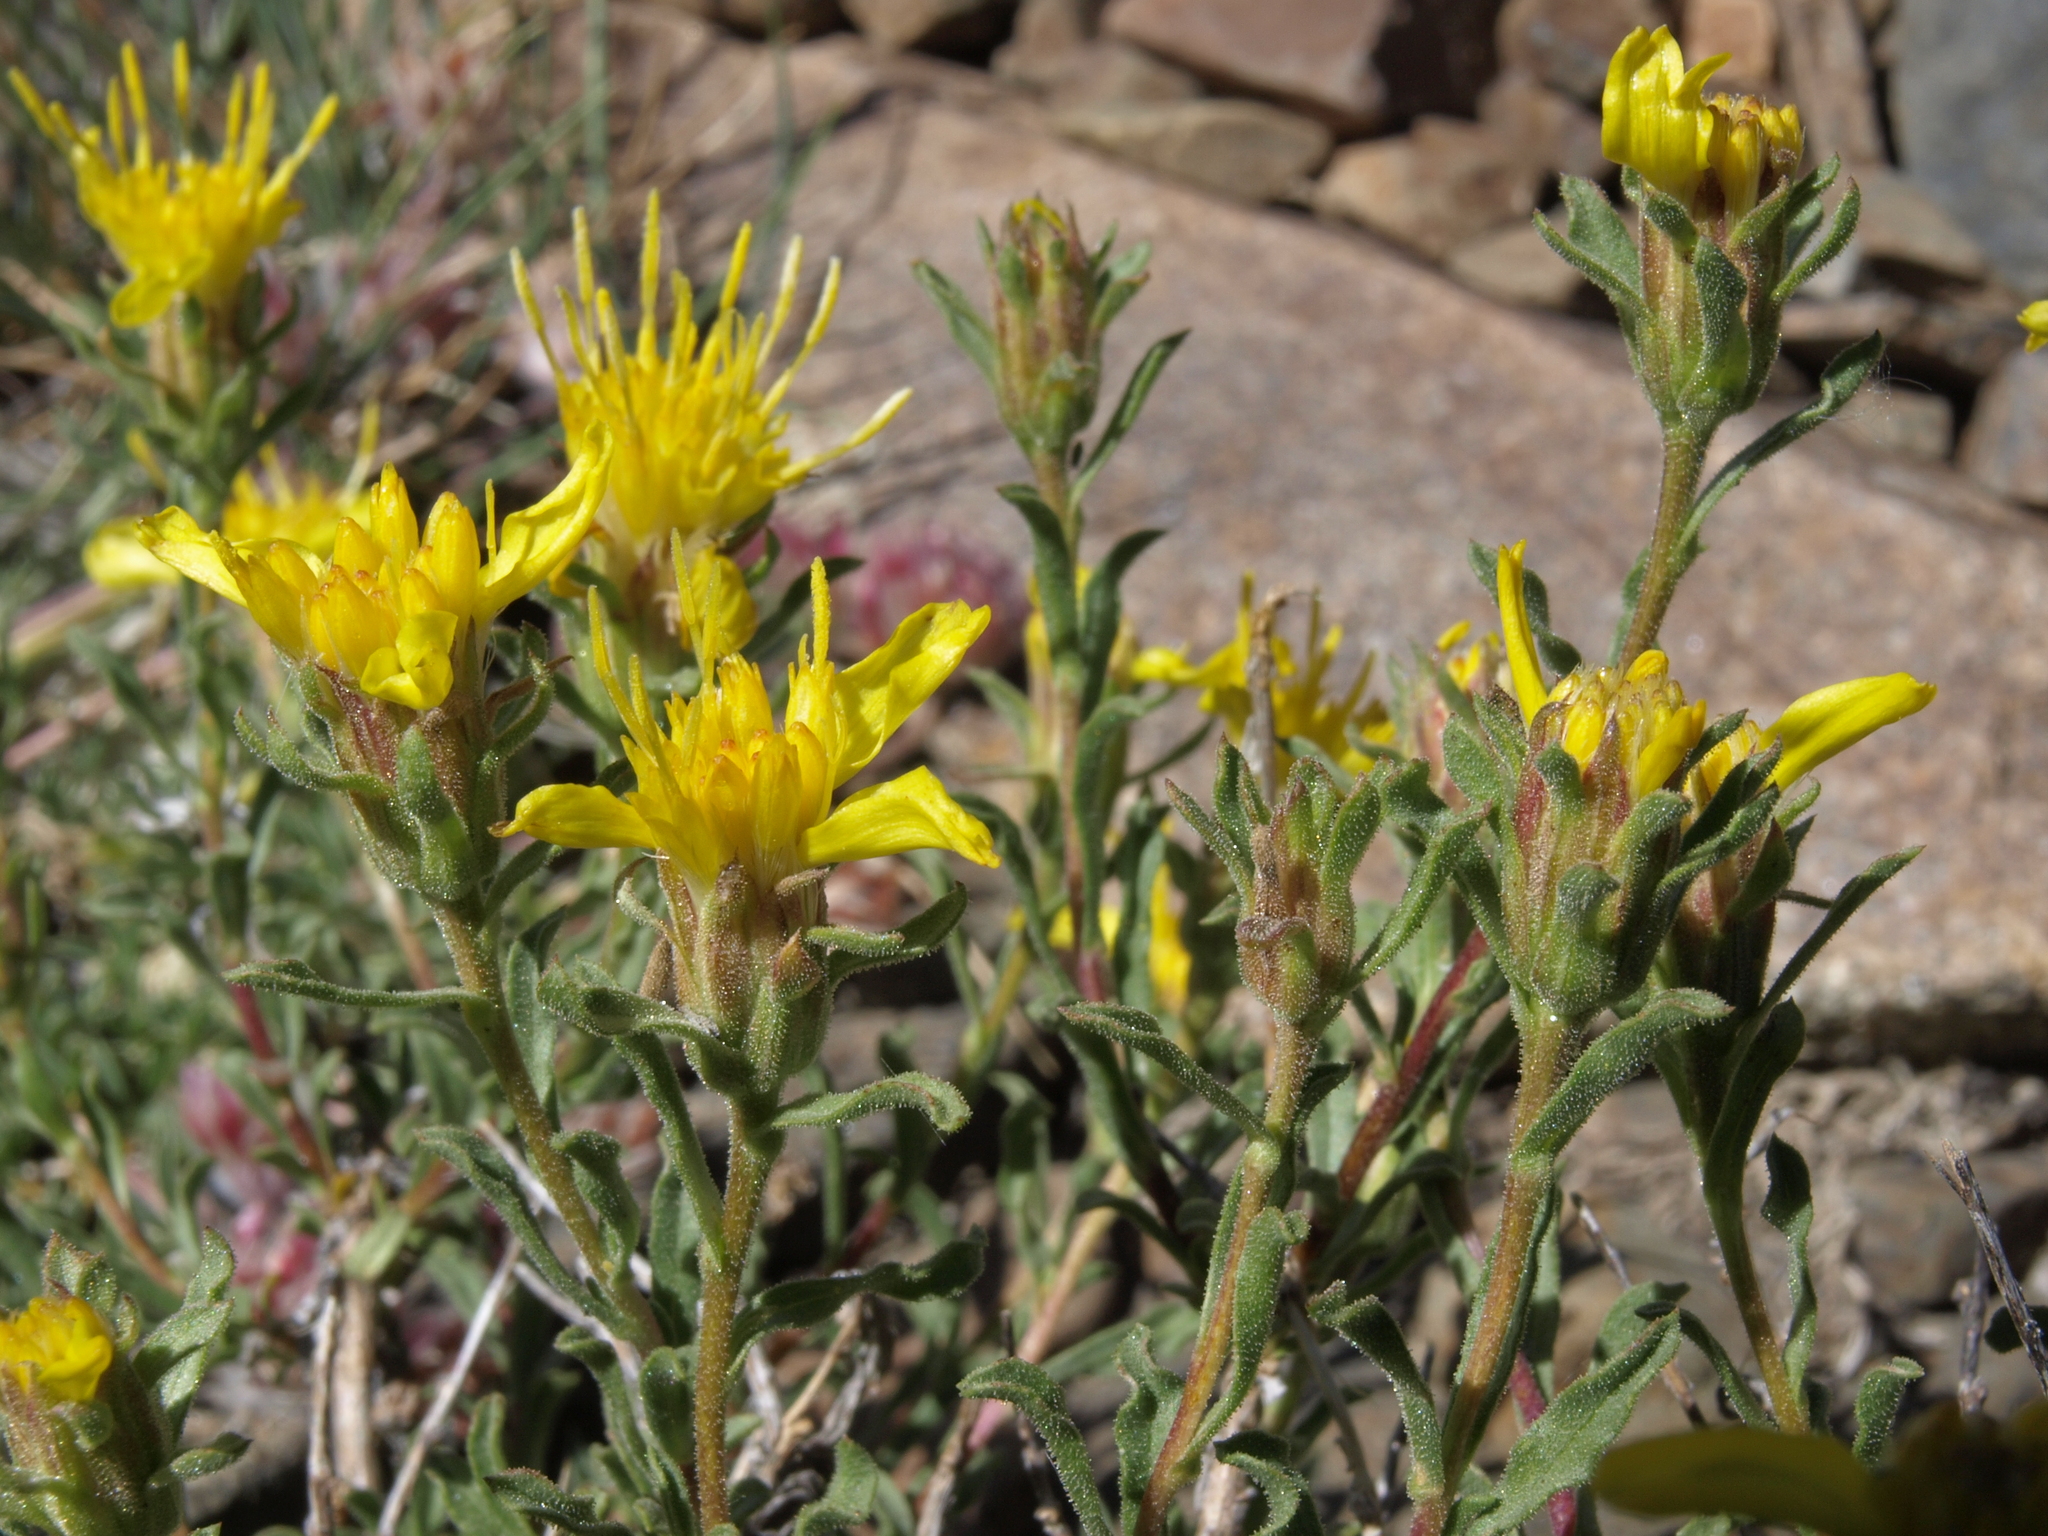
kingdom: Plantae
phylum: Tracheophyta
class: Magnoliopsida
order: Asterales
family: Asteraceae
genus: Ericameria
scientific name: Ericameria suffruticosa
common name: Goldenweed
